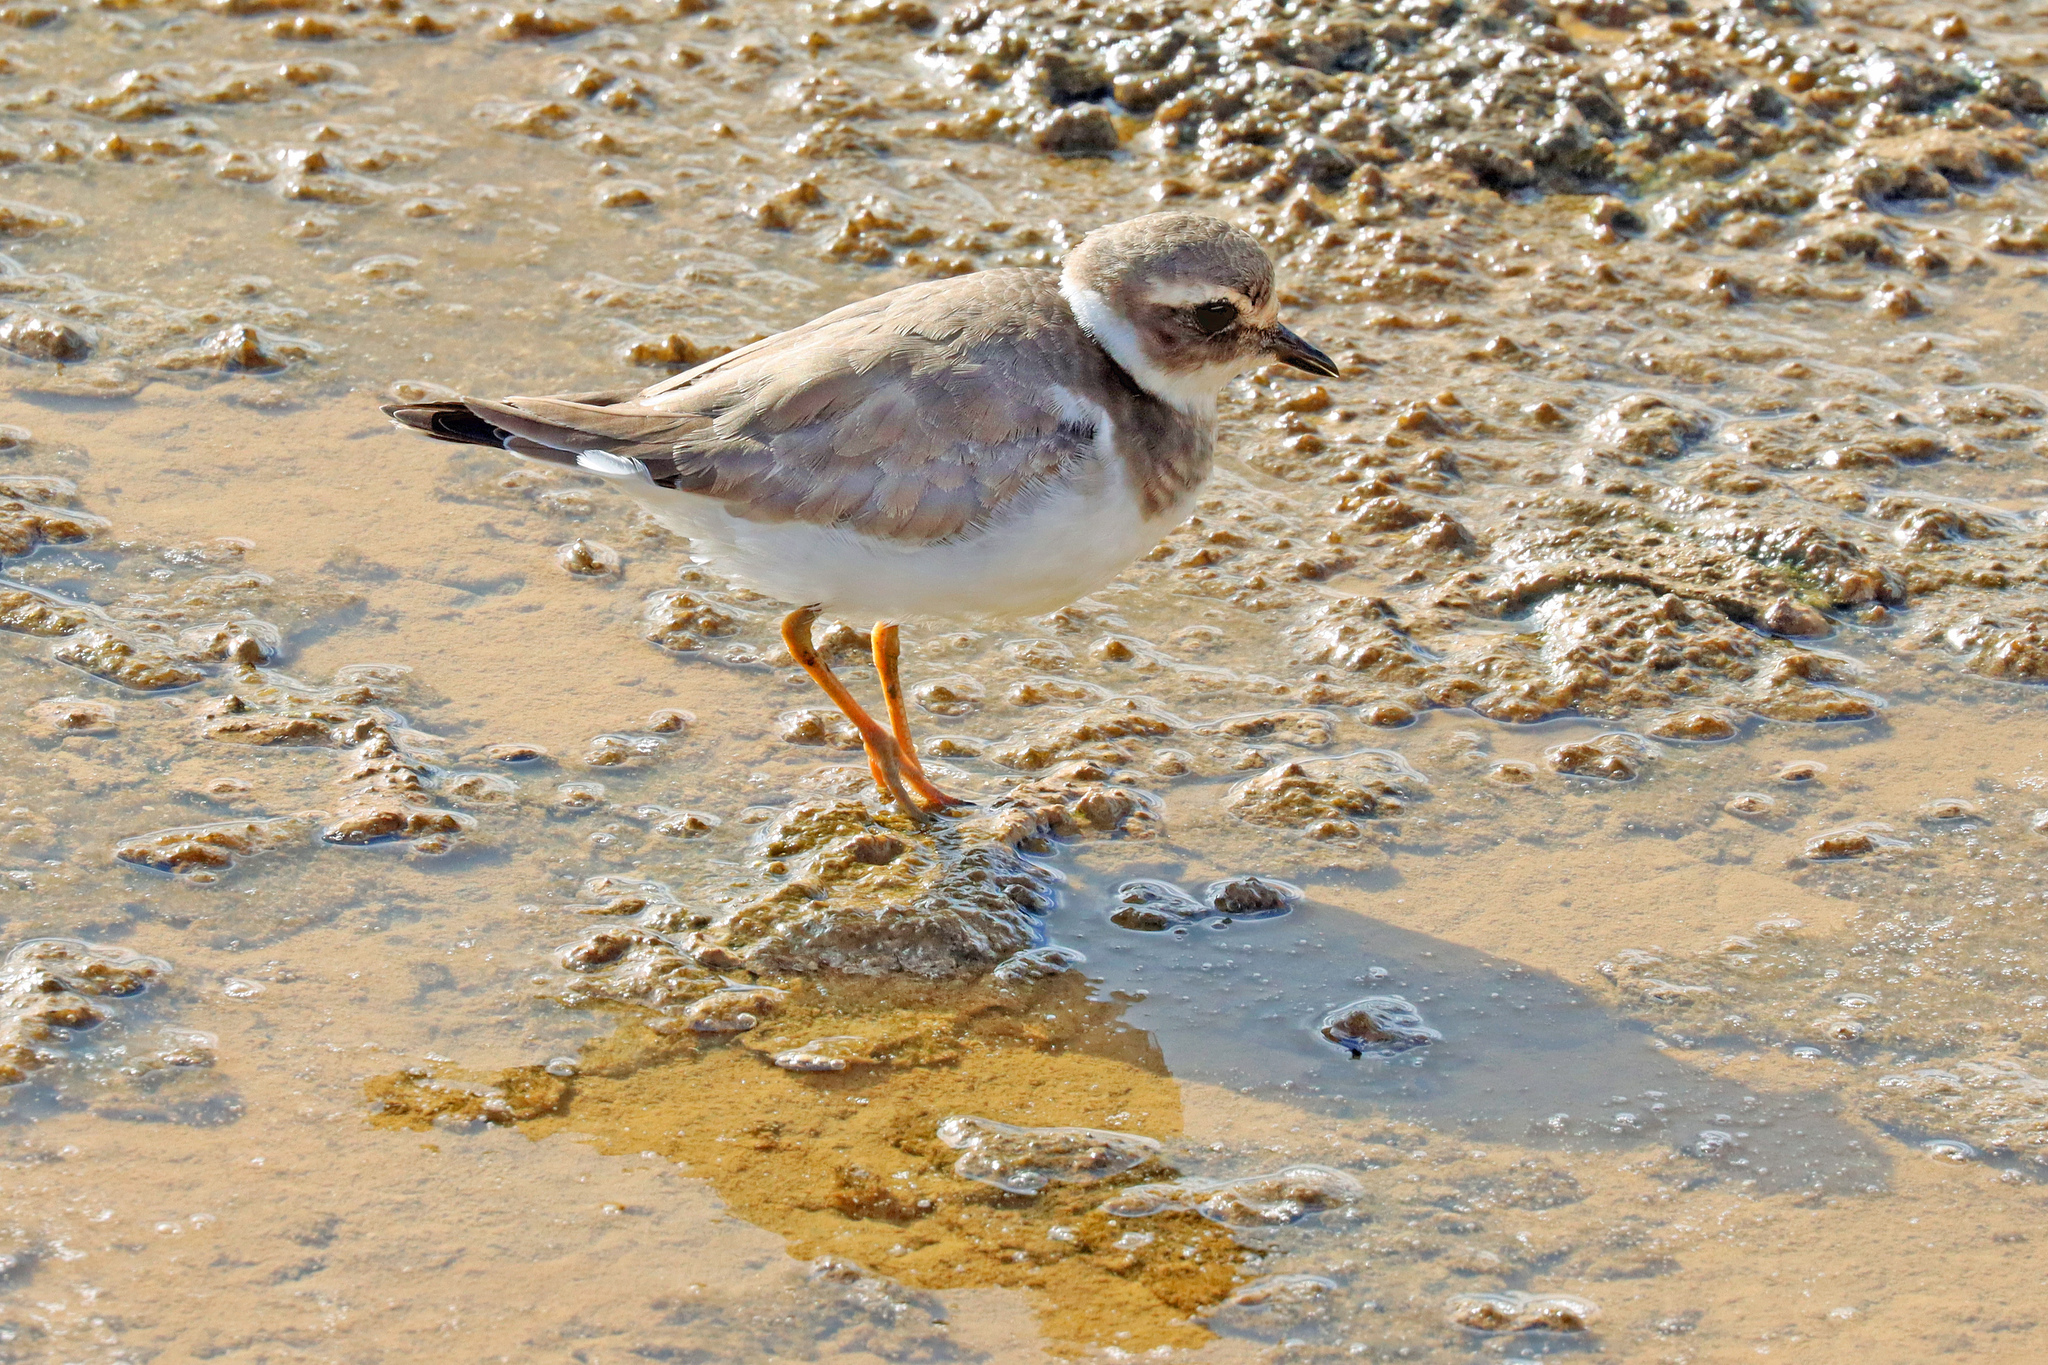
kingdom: Animalia
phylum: Chordata
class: Aves
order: Charadriiformes
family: Charadriidae
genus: Charadrius
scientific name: Charadrius hiaticula
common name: Common ringed plover
